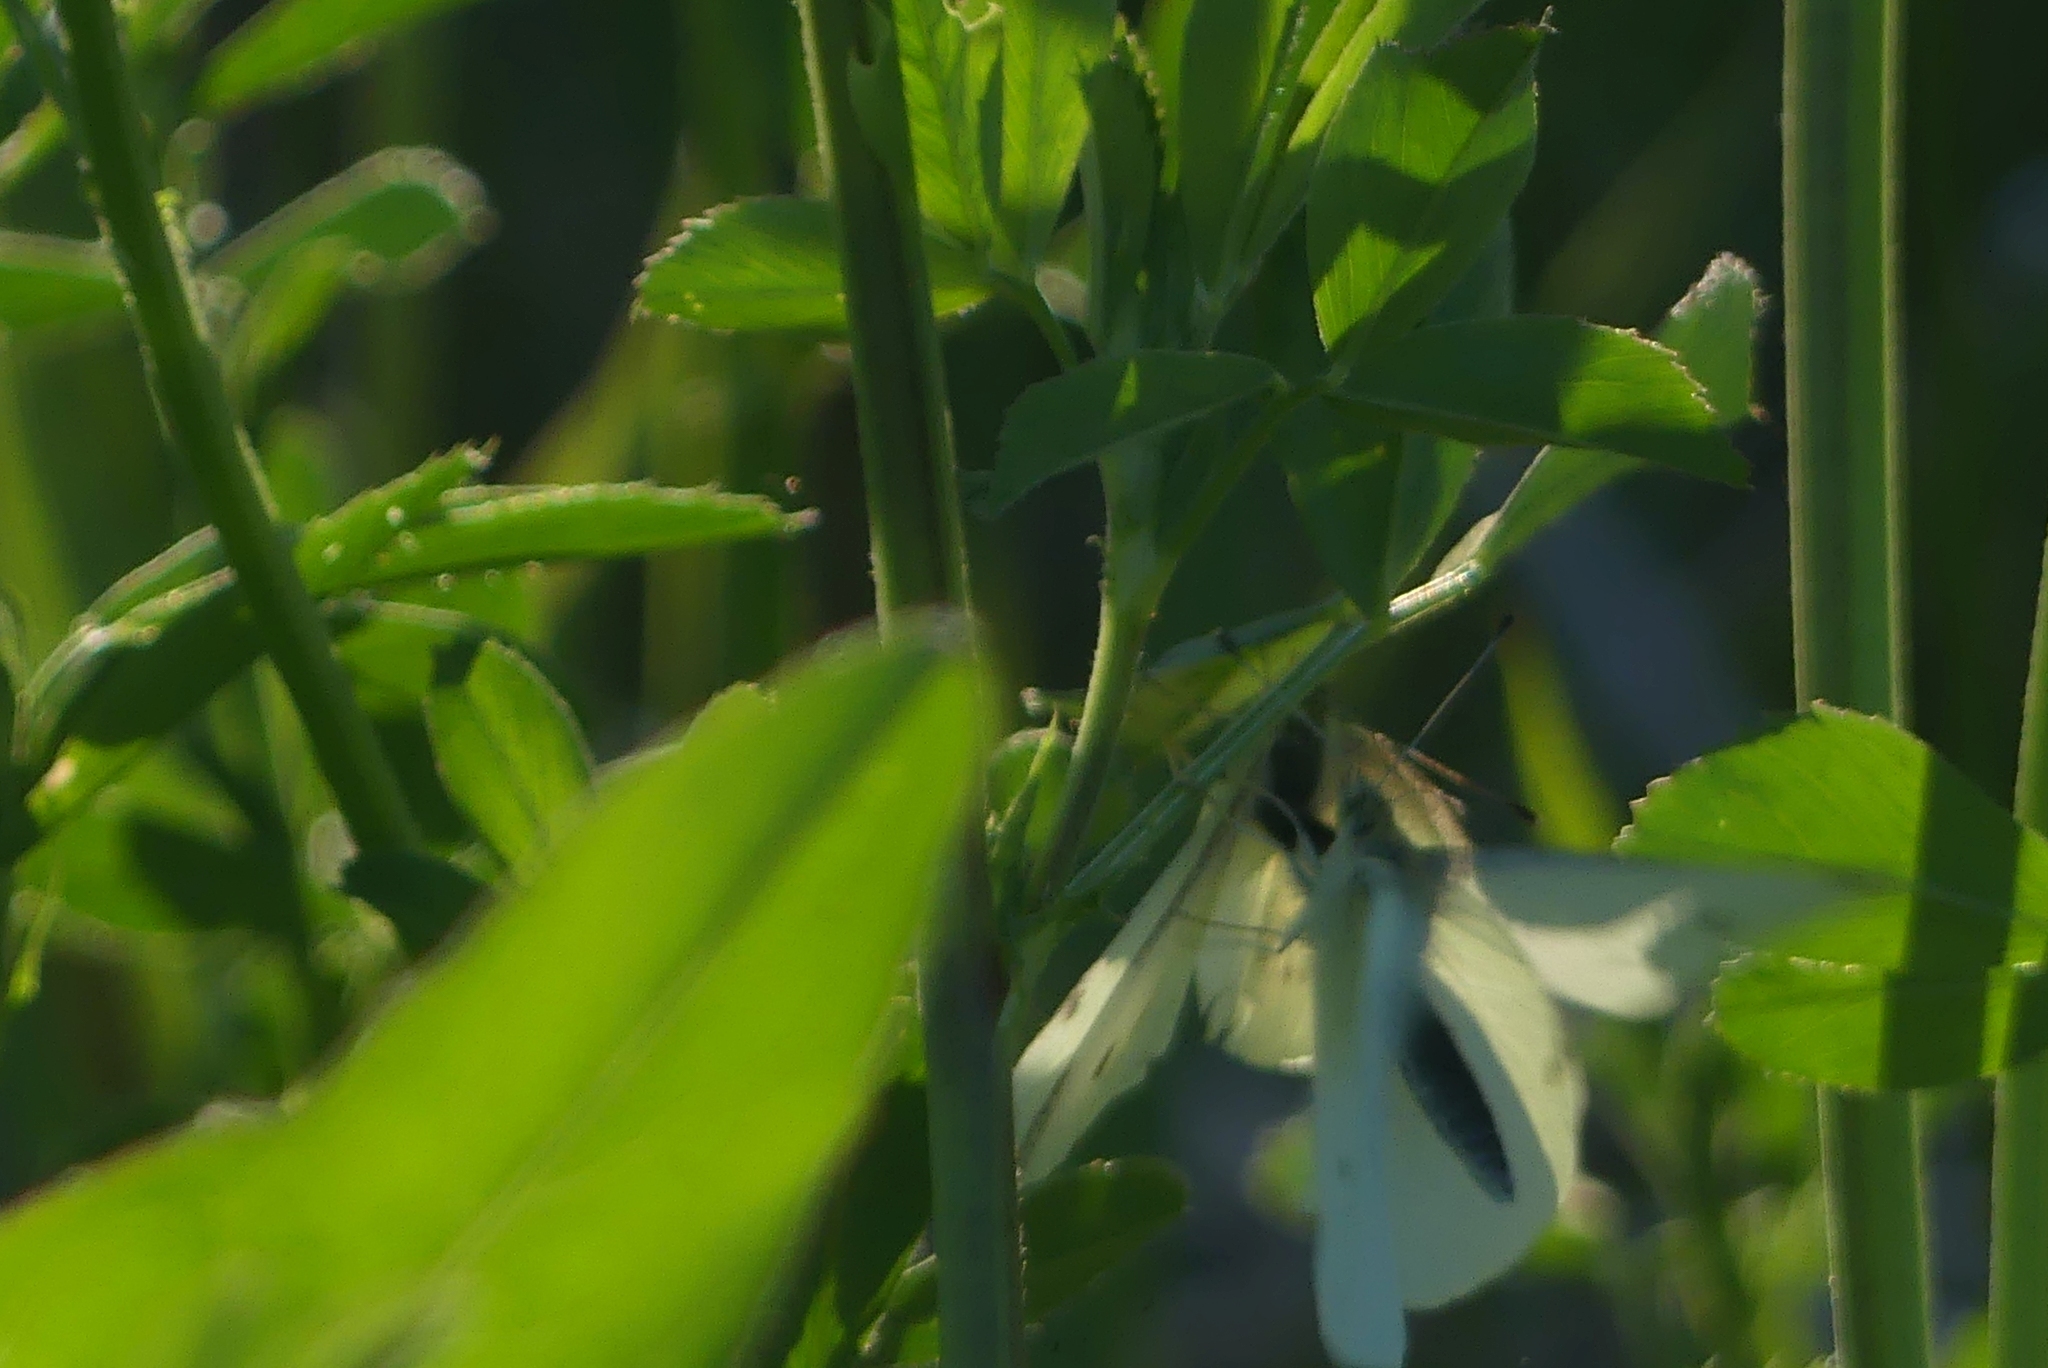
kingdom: Animalia
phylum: Arthropoda
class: Insecta
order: Lepidoptera
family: Pieridae
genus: Pieris
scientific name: Pieris rapae
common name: Small white
